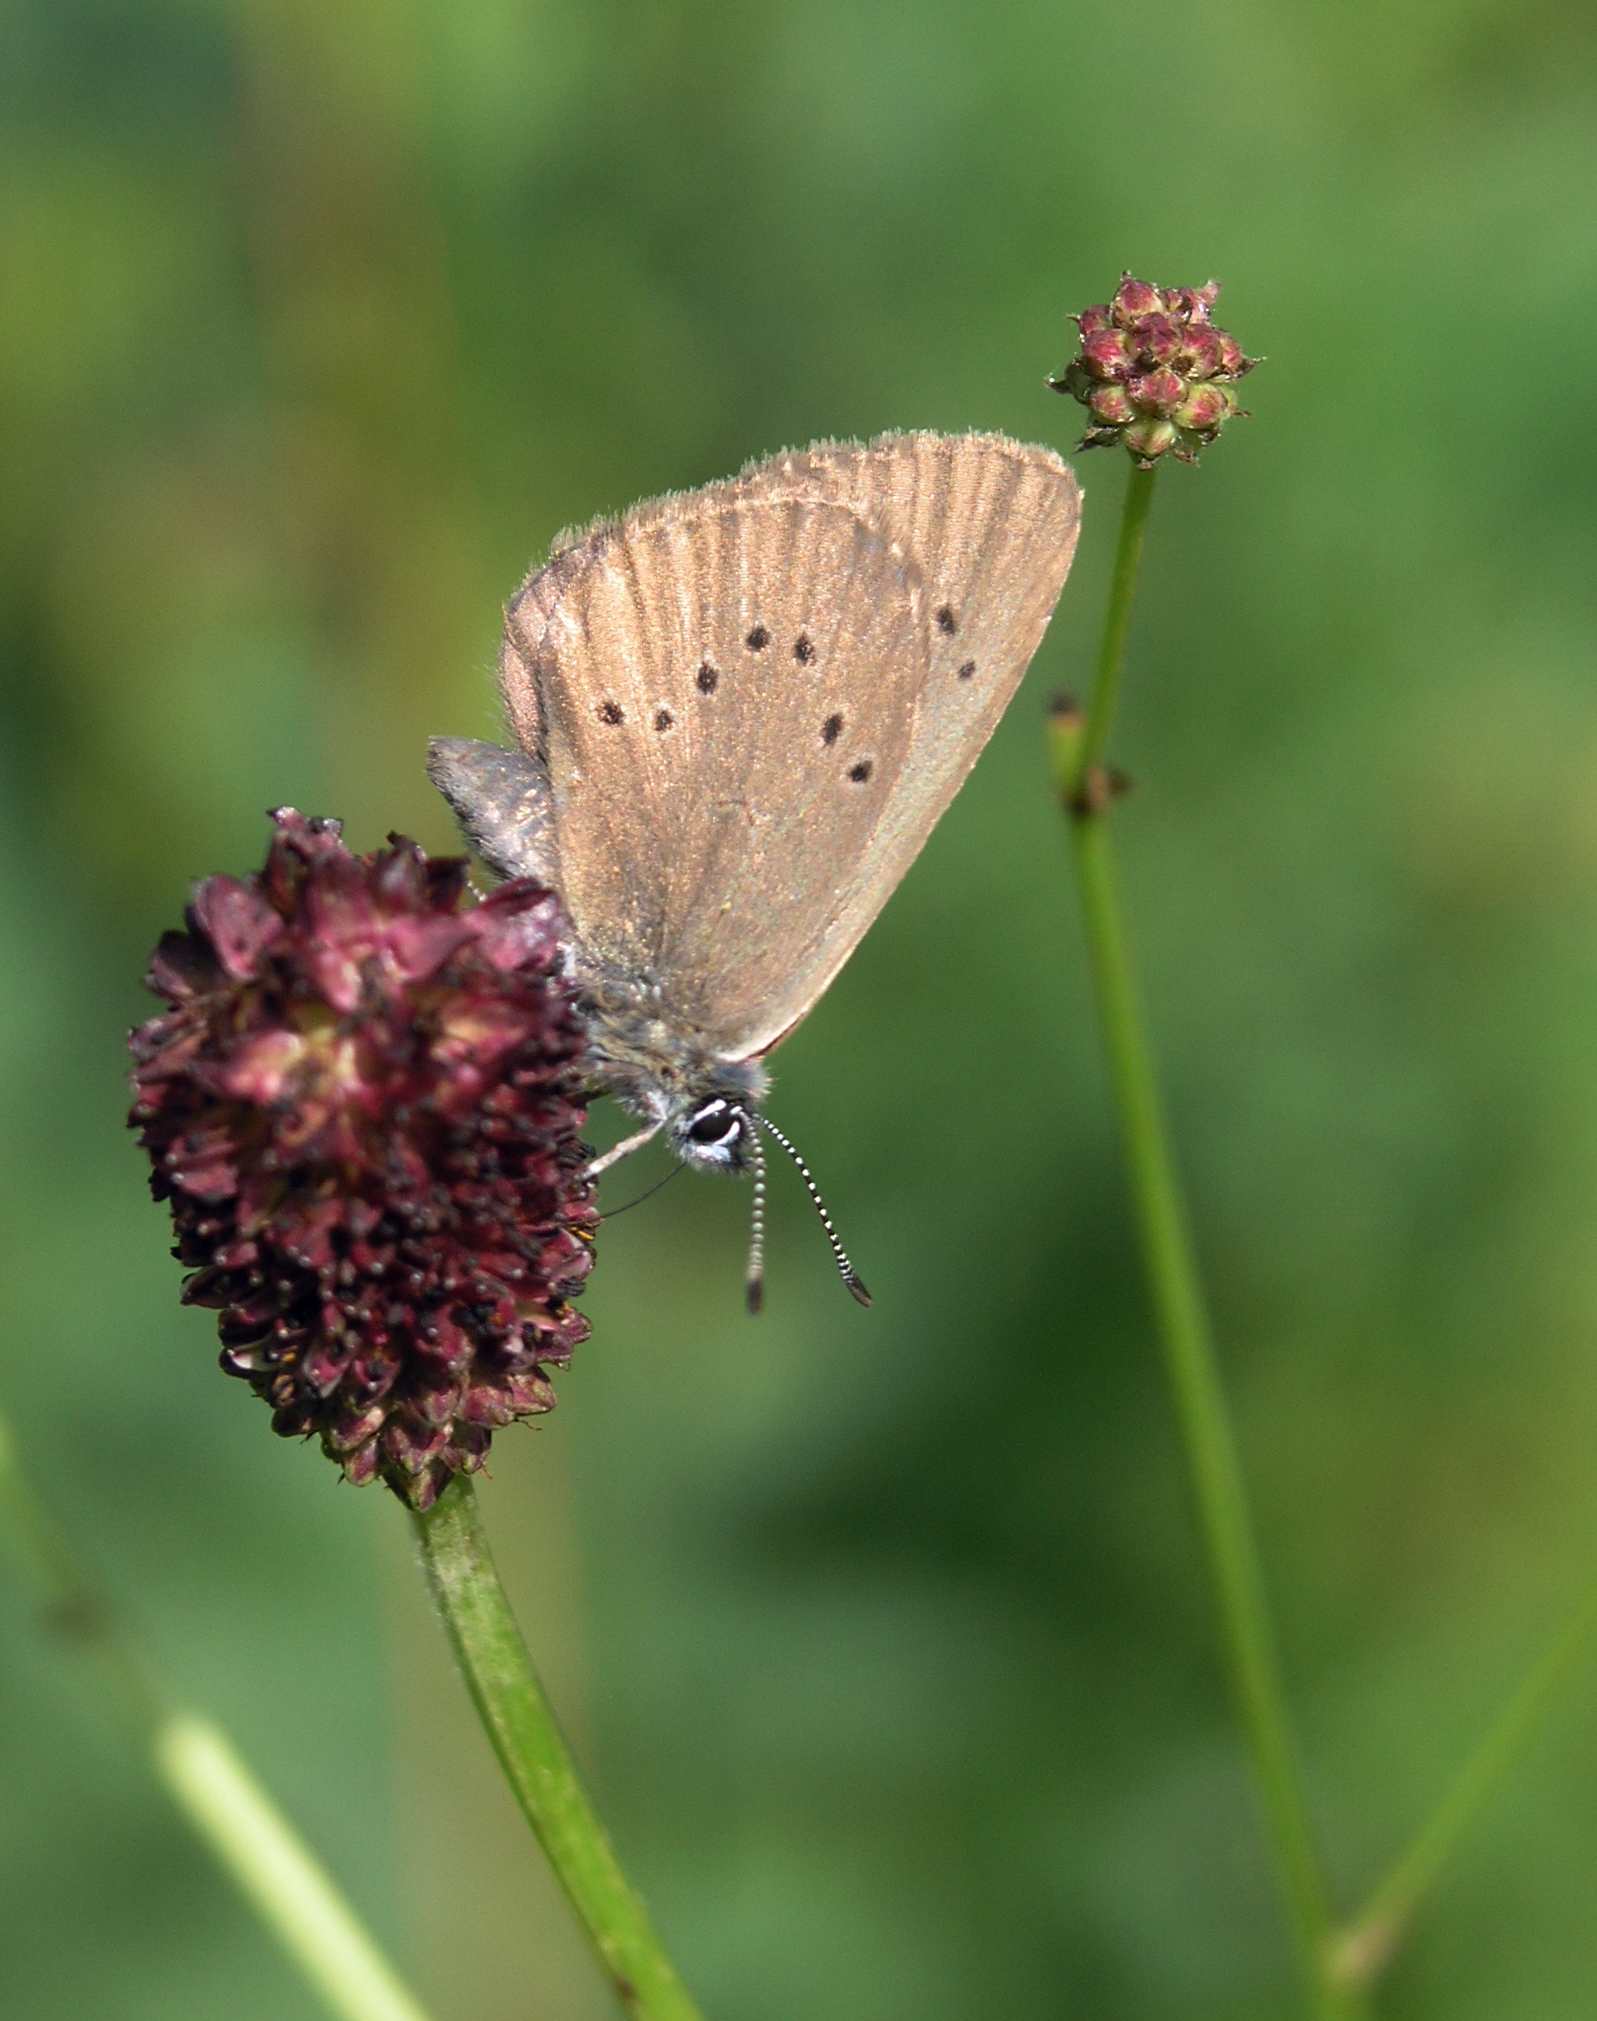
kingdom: Animalia
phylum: Arthropoda
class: Insecta
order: Lepidoptera
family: Lycaenidae
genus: Maculinea
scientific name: Maculinea nausithous
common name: Dusky large blue
